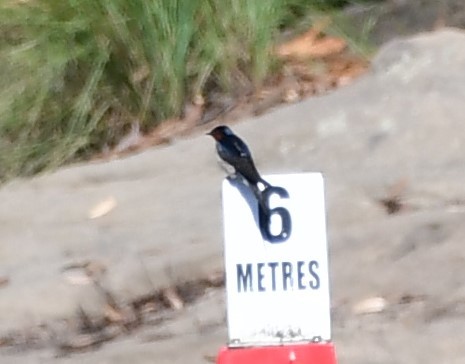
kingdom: Animalia
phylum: Chordata
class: Aves
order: Passeriformes
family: Hirundinidae
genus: Hirundo
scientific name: Hirundo neoxena
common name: Welcome swallow
